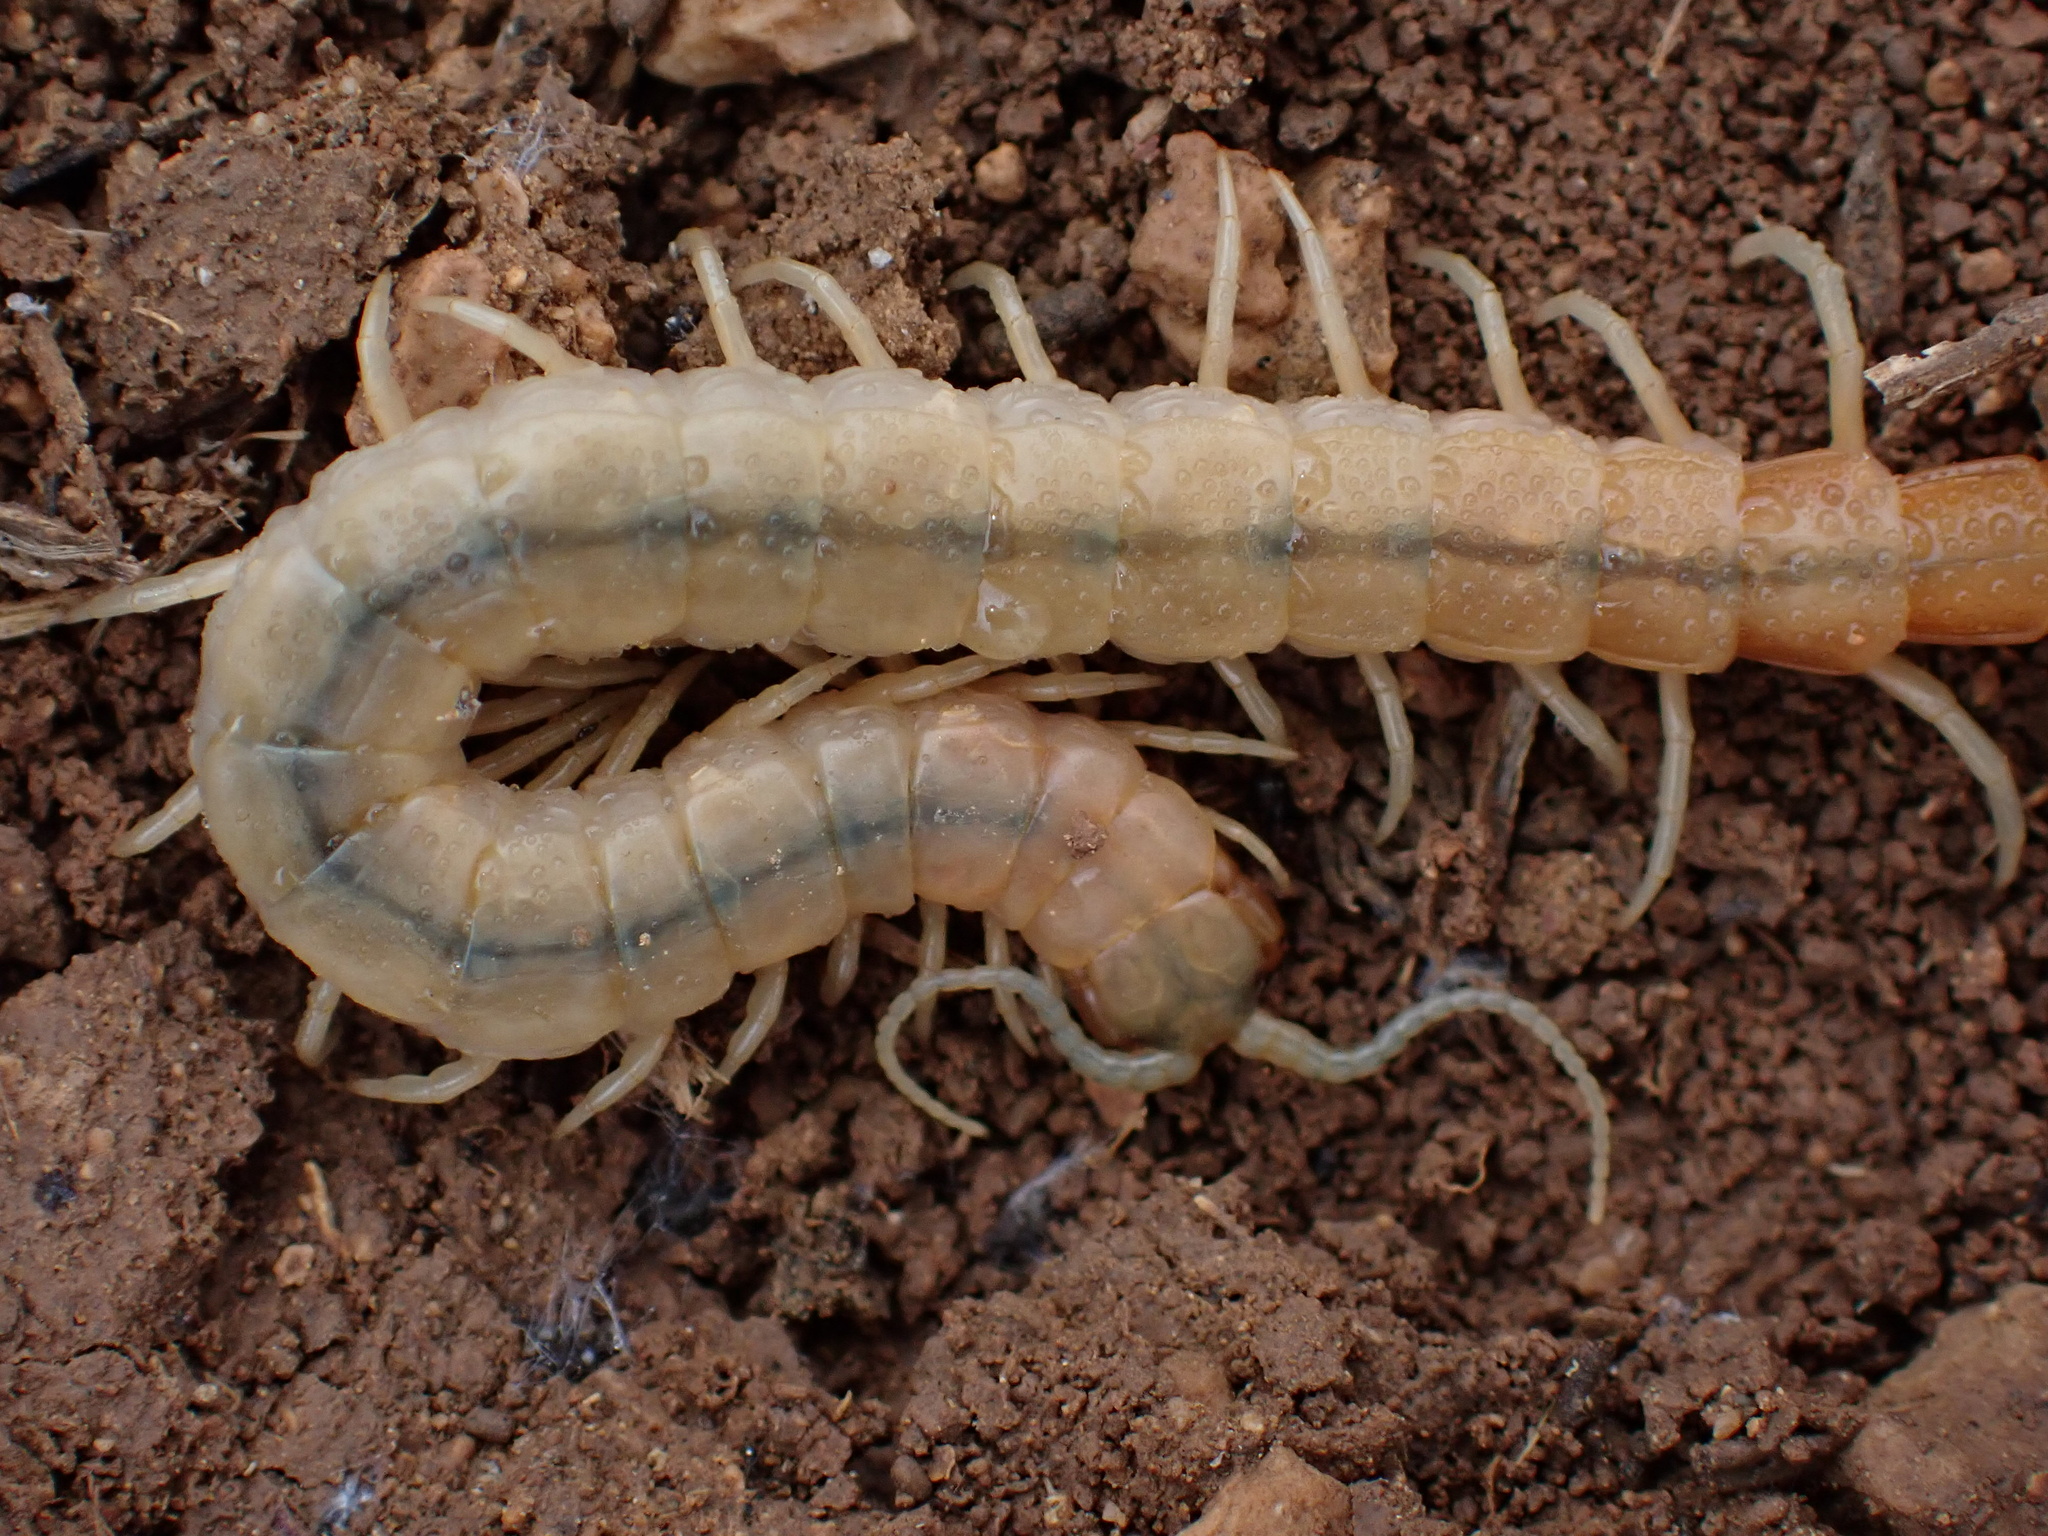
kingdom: Animalia
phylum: Arthropoda
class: Chilopoda
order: Scolopendromorpha
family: Scolopendridae
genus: Scolopendra
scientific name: Scolopendra canidens
